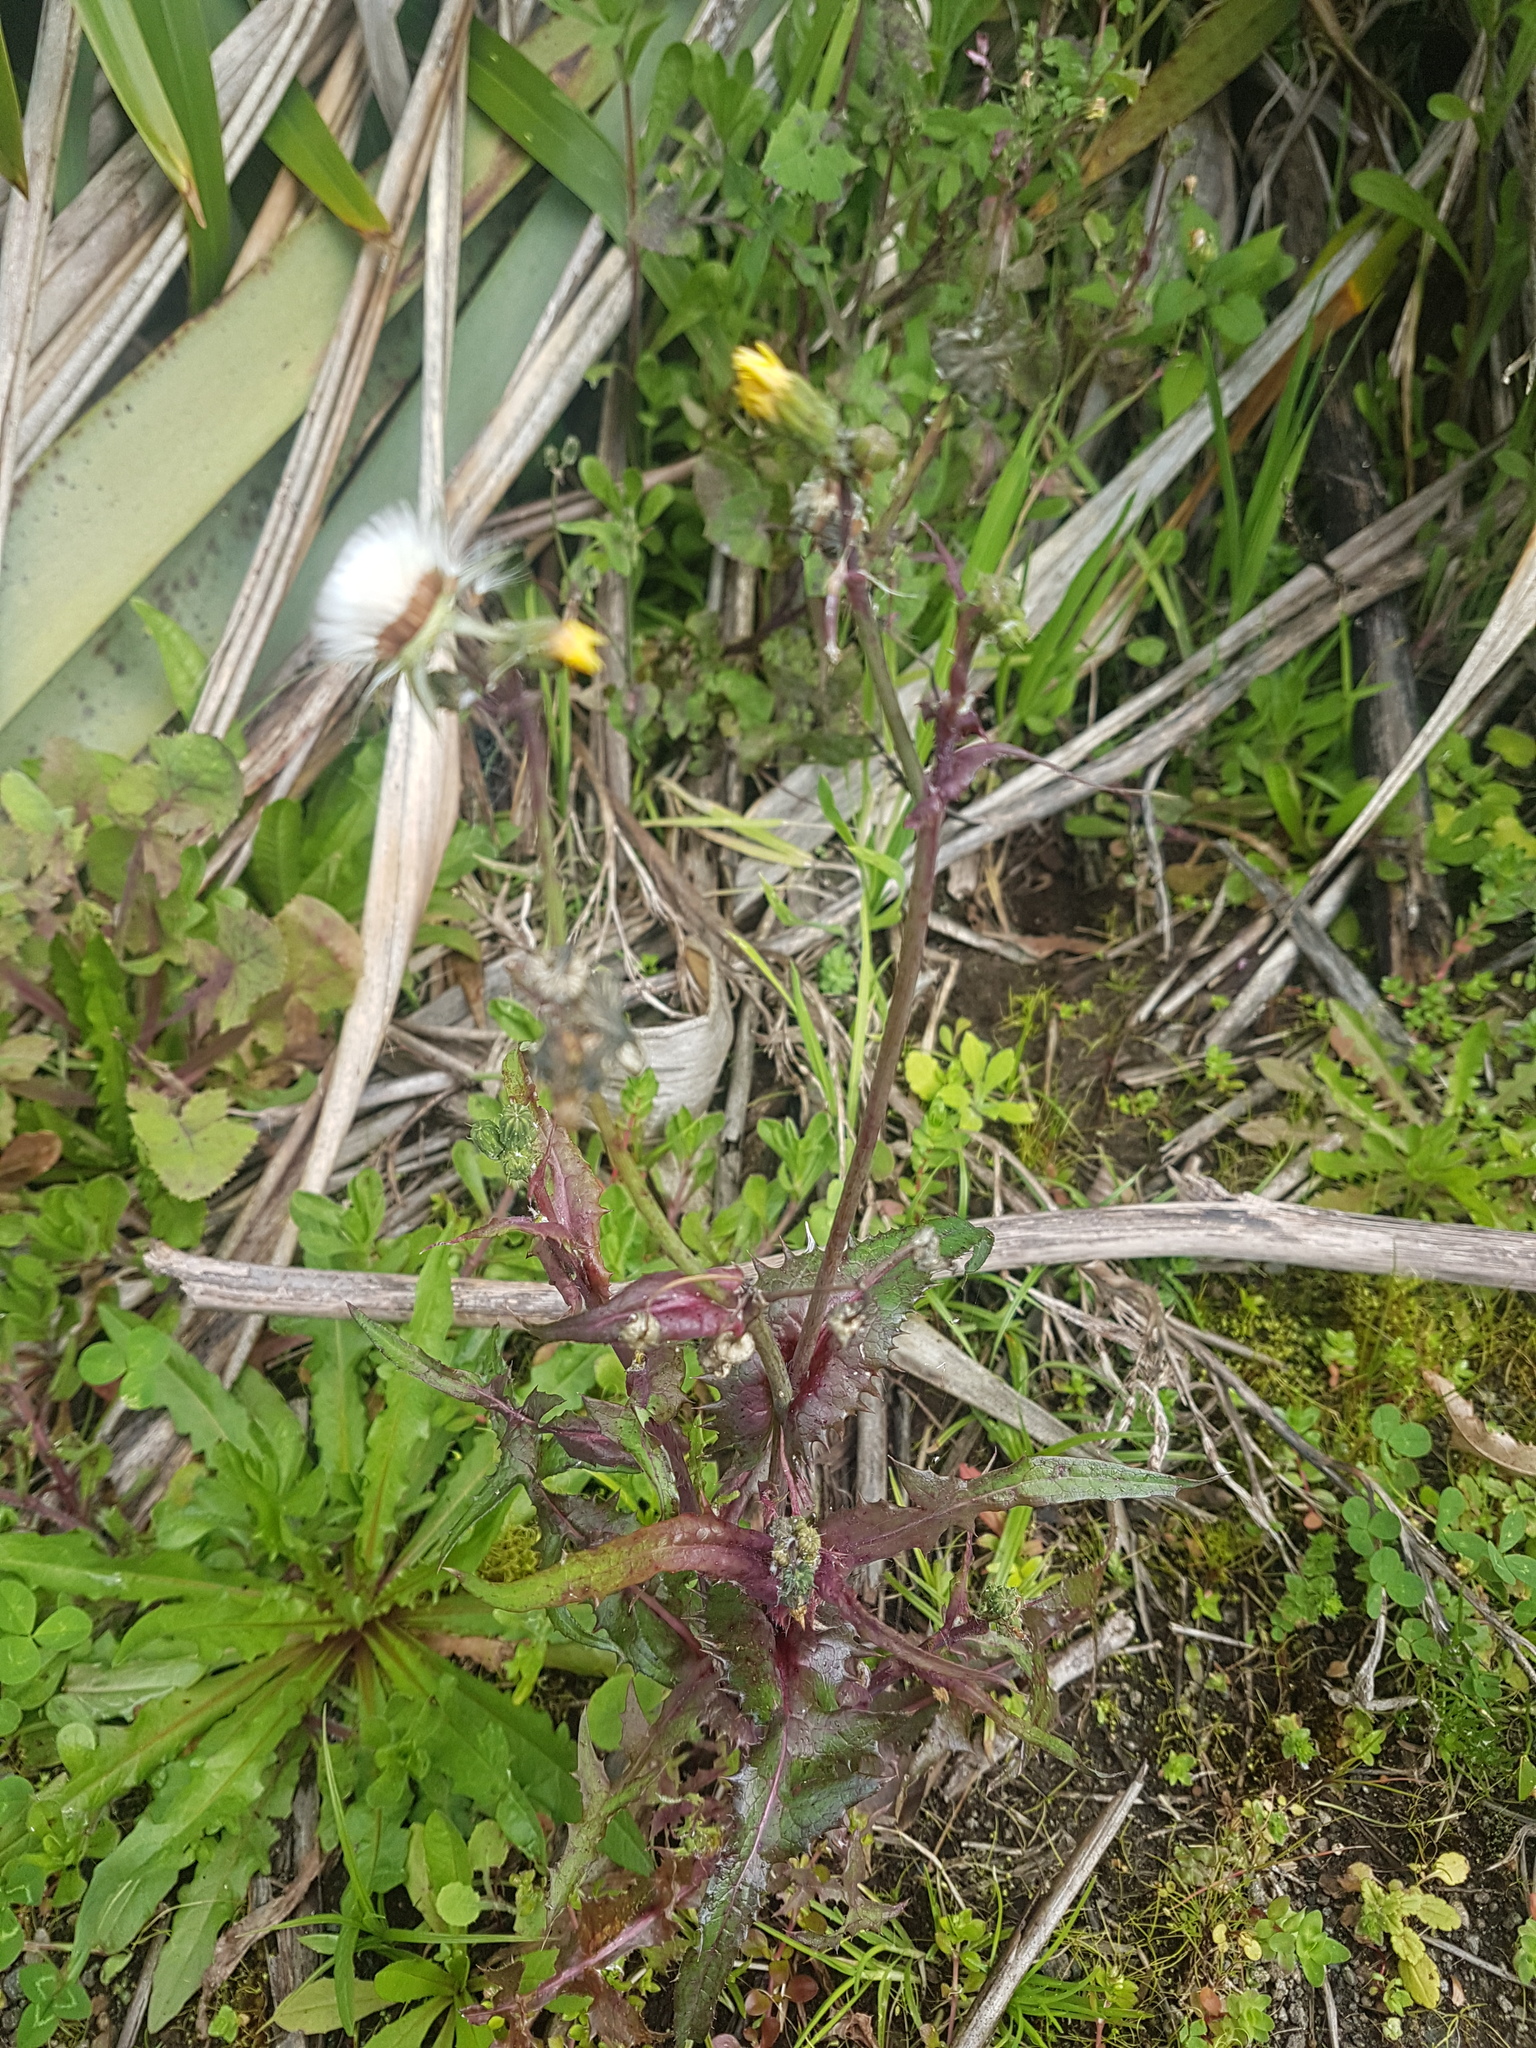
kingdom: Plantae
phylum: Tracheophyta
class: Magnoliopsida
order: Asterales
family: Asteraceae
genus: Sonchus
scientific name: Sonchus asper
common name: Prickly sow-thistle
